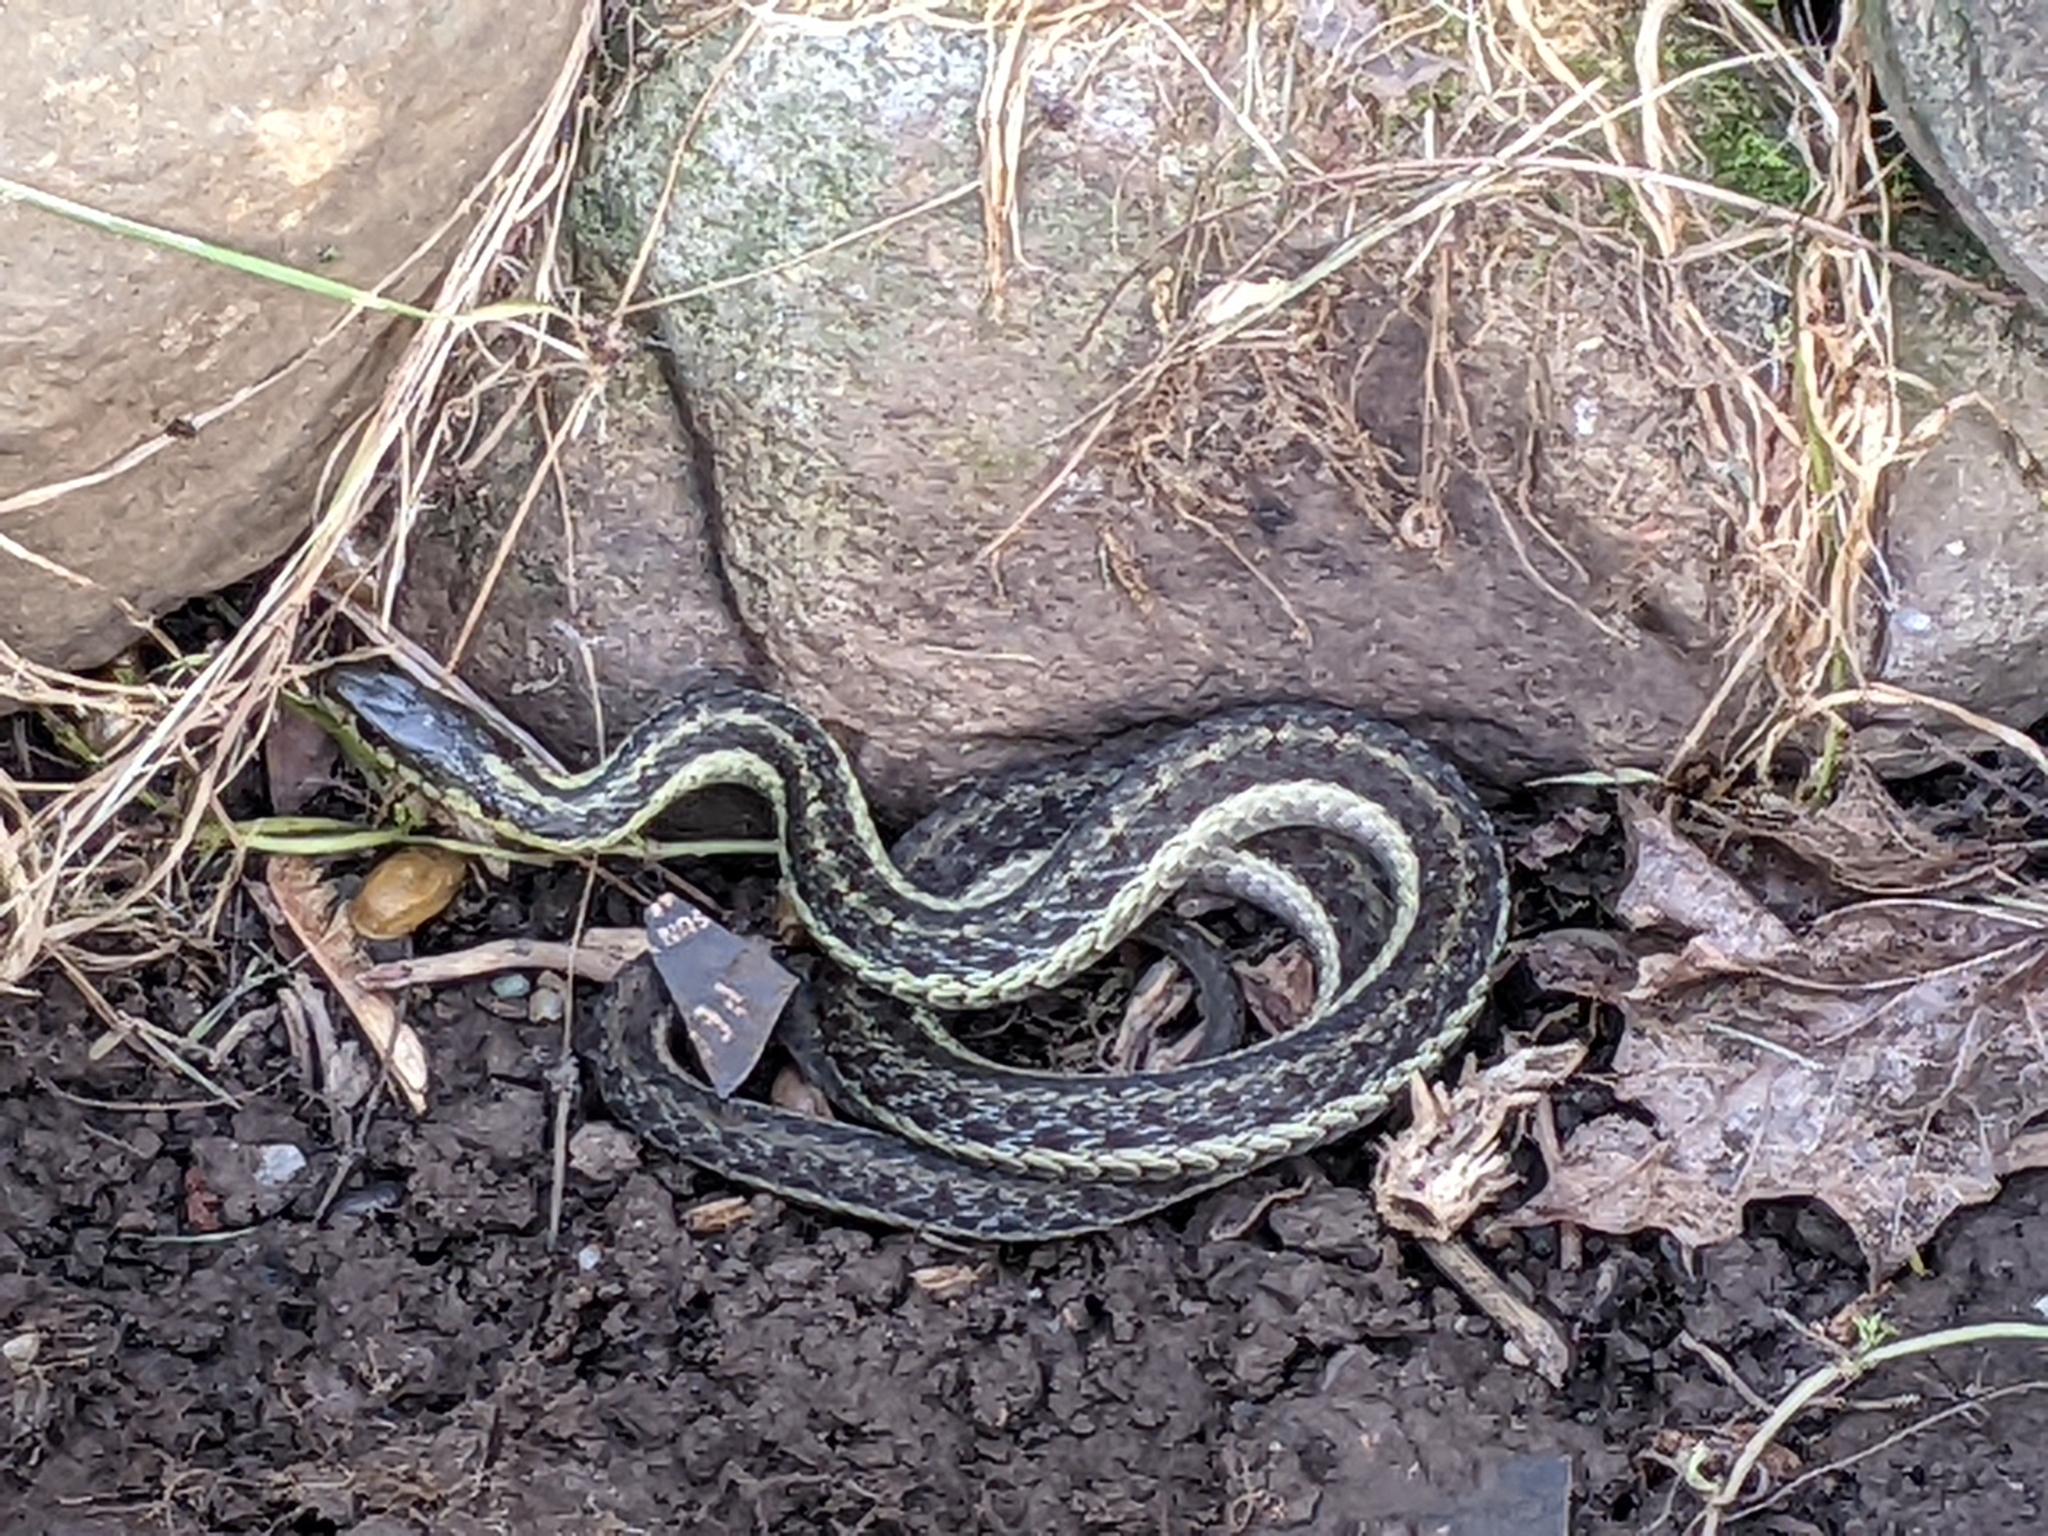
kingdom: Animalia
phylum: Chordata
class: Squamata
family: Colubridae
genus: Thamnophis
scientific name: Thamnophis sirtalis
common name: Common garter snake
